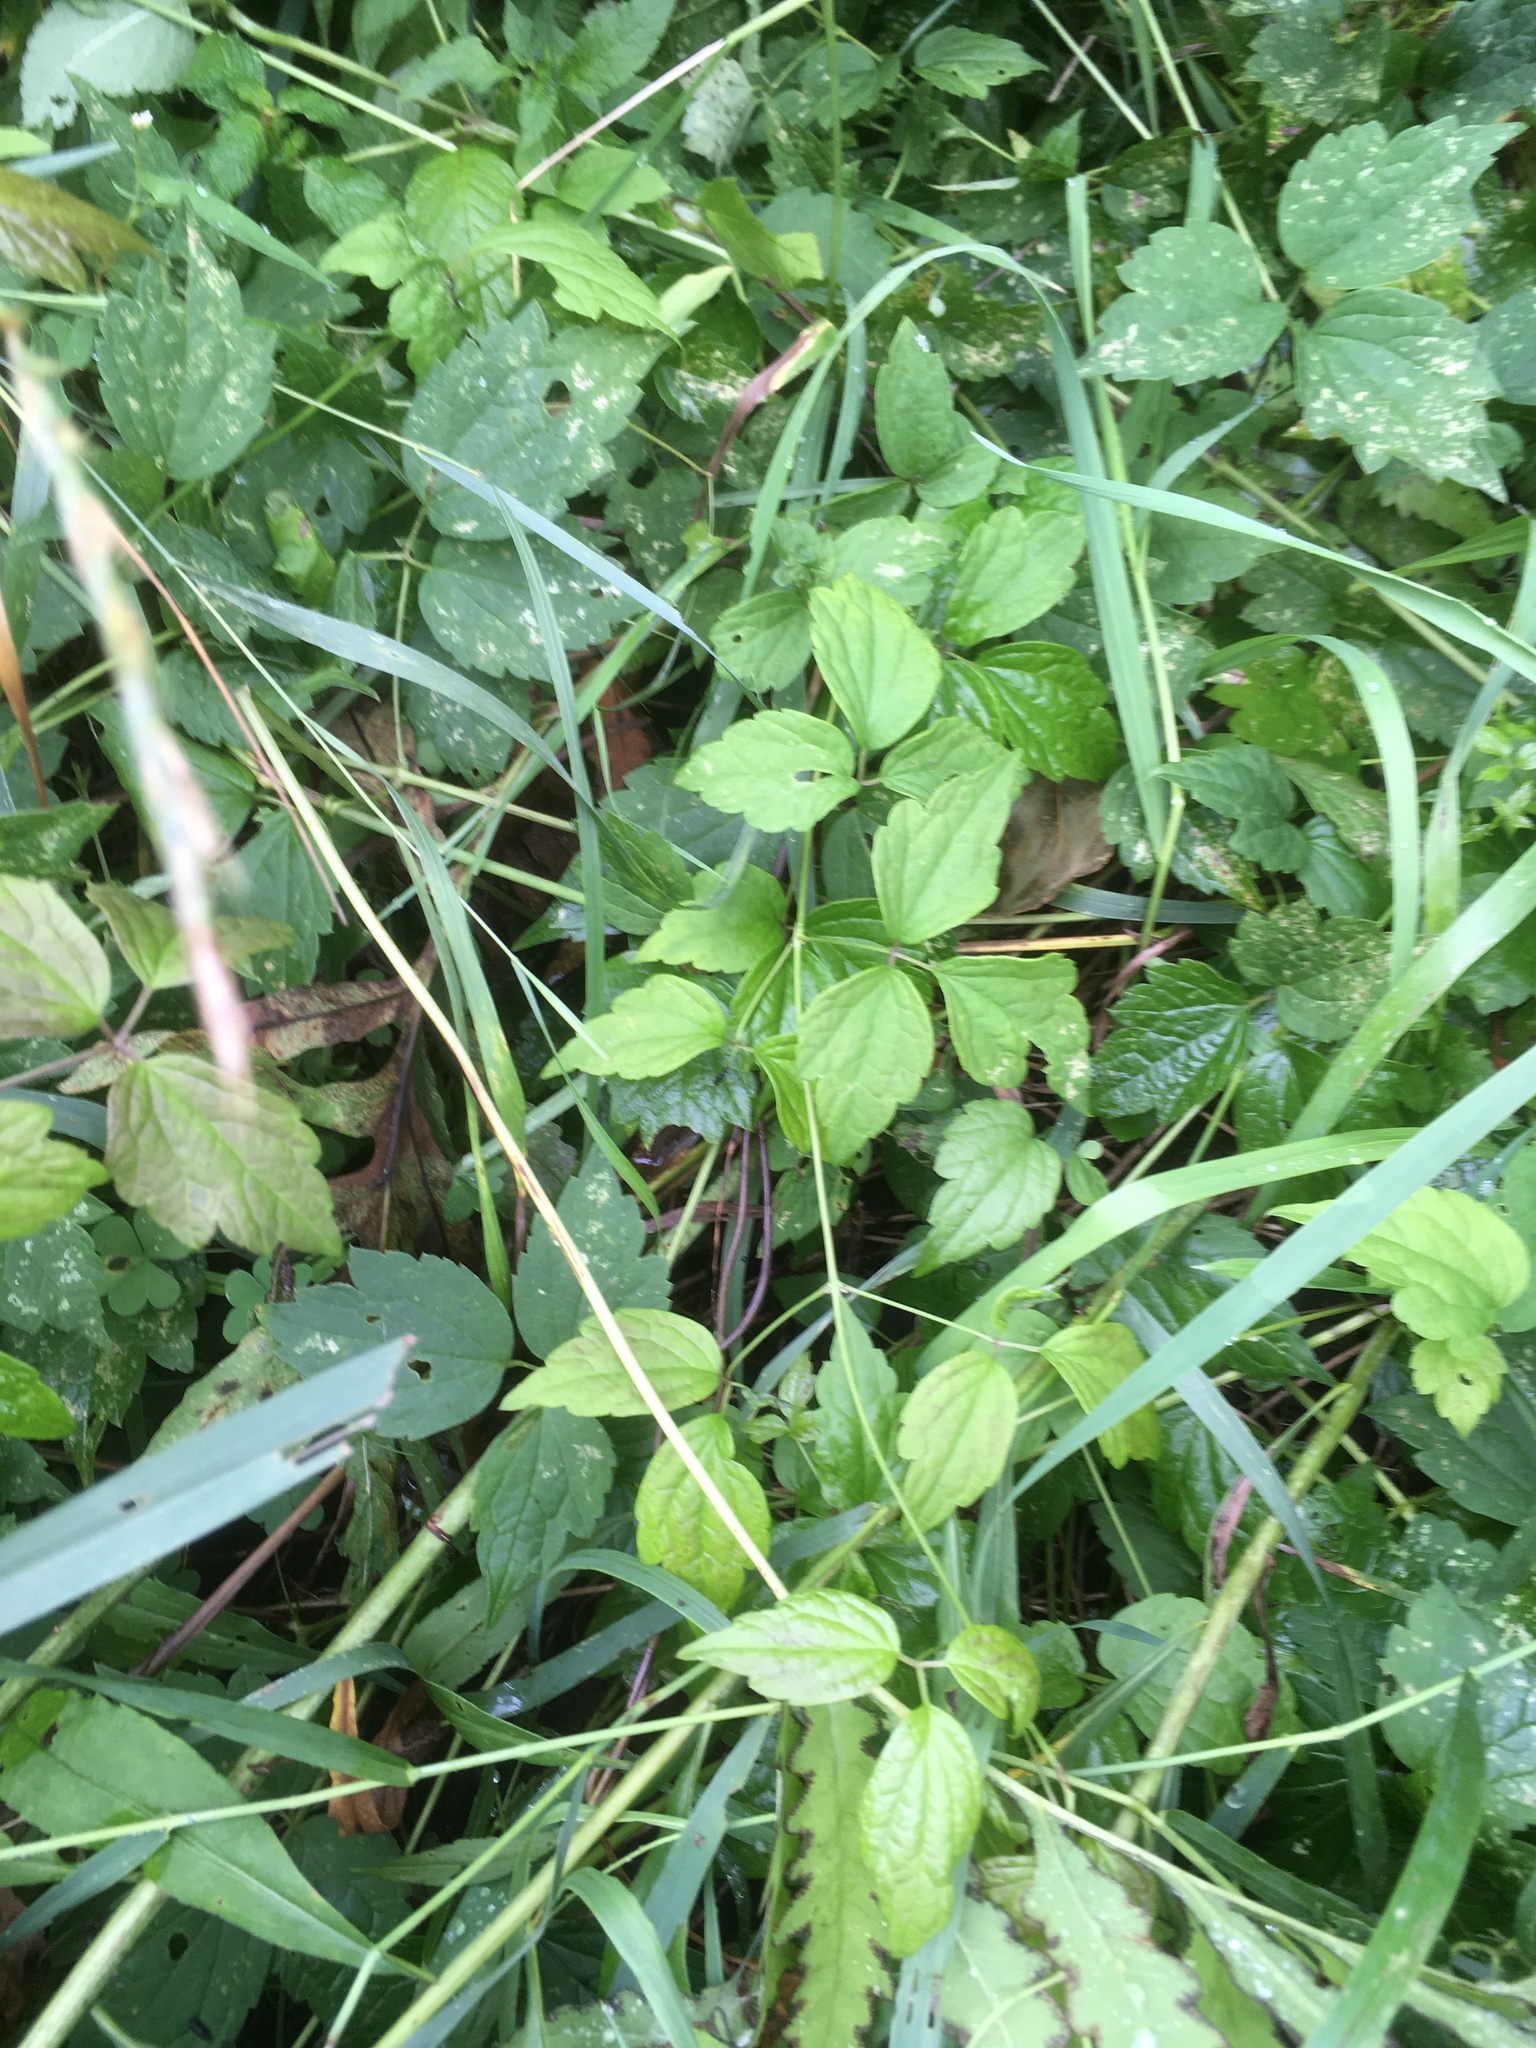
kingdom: Plantae
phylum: Tracheophyta
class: Magnoliopsida
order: Ranunculales
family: Ranunculaceae
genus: Clematis
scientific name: Clematis virginiana
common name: Virgin's-bower
